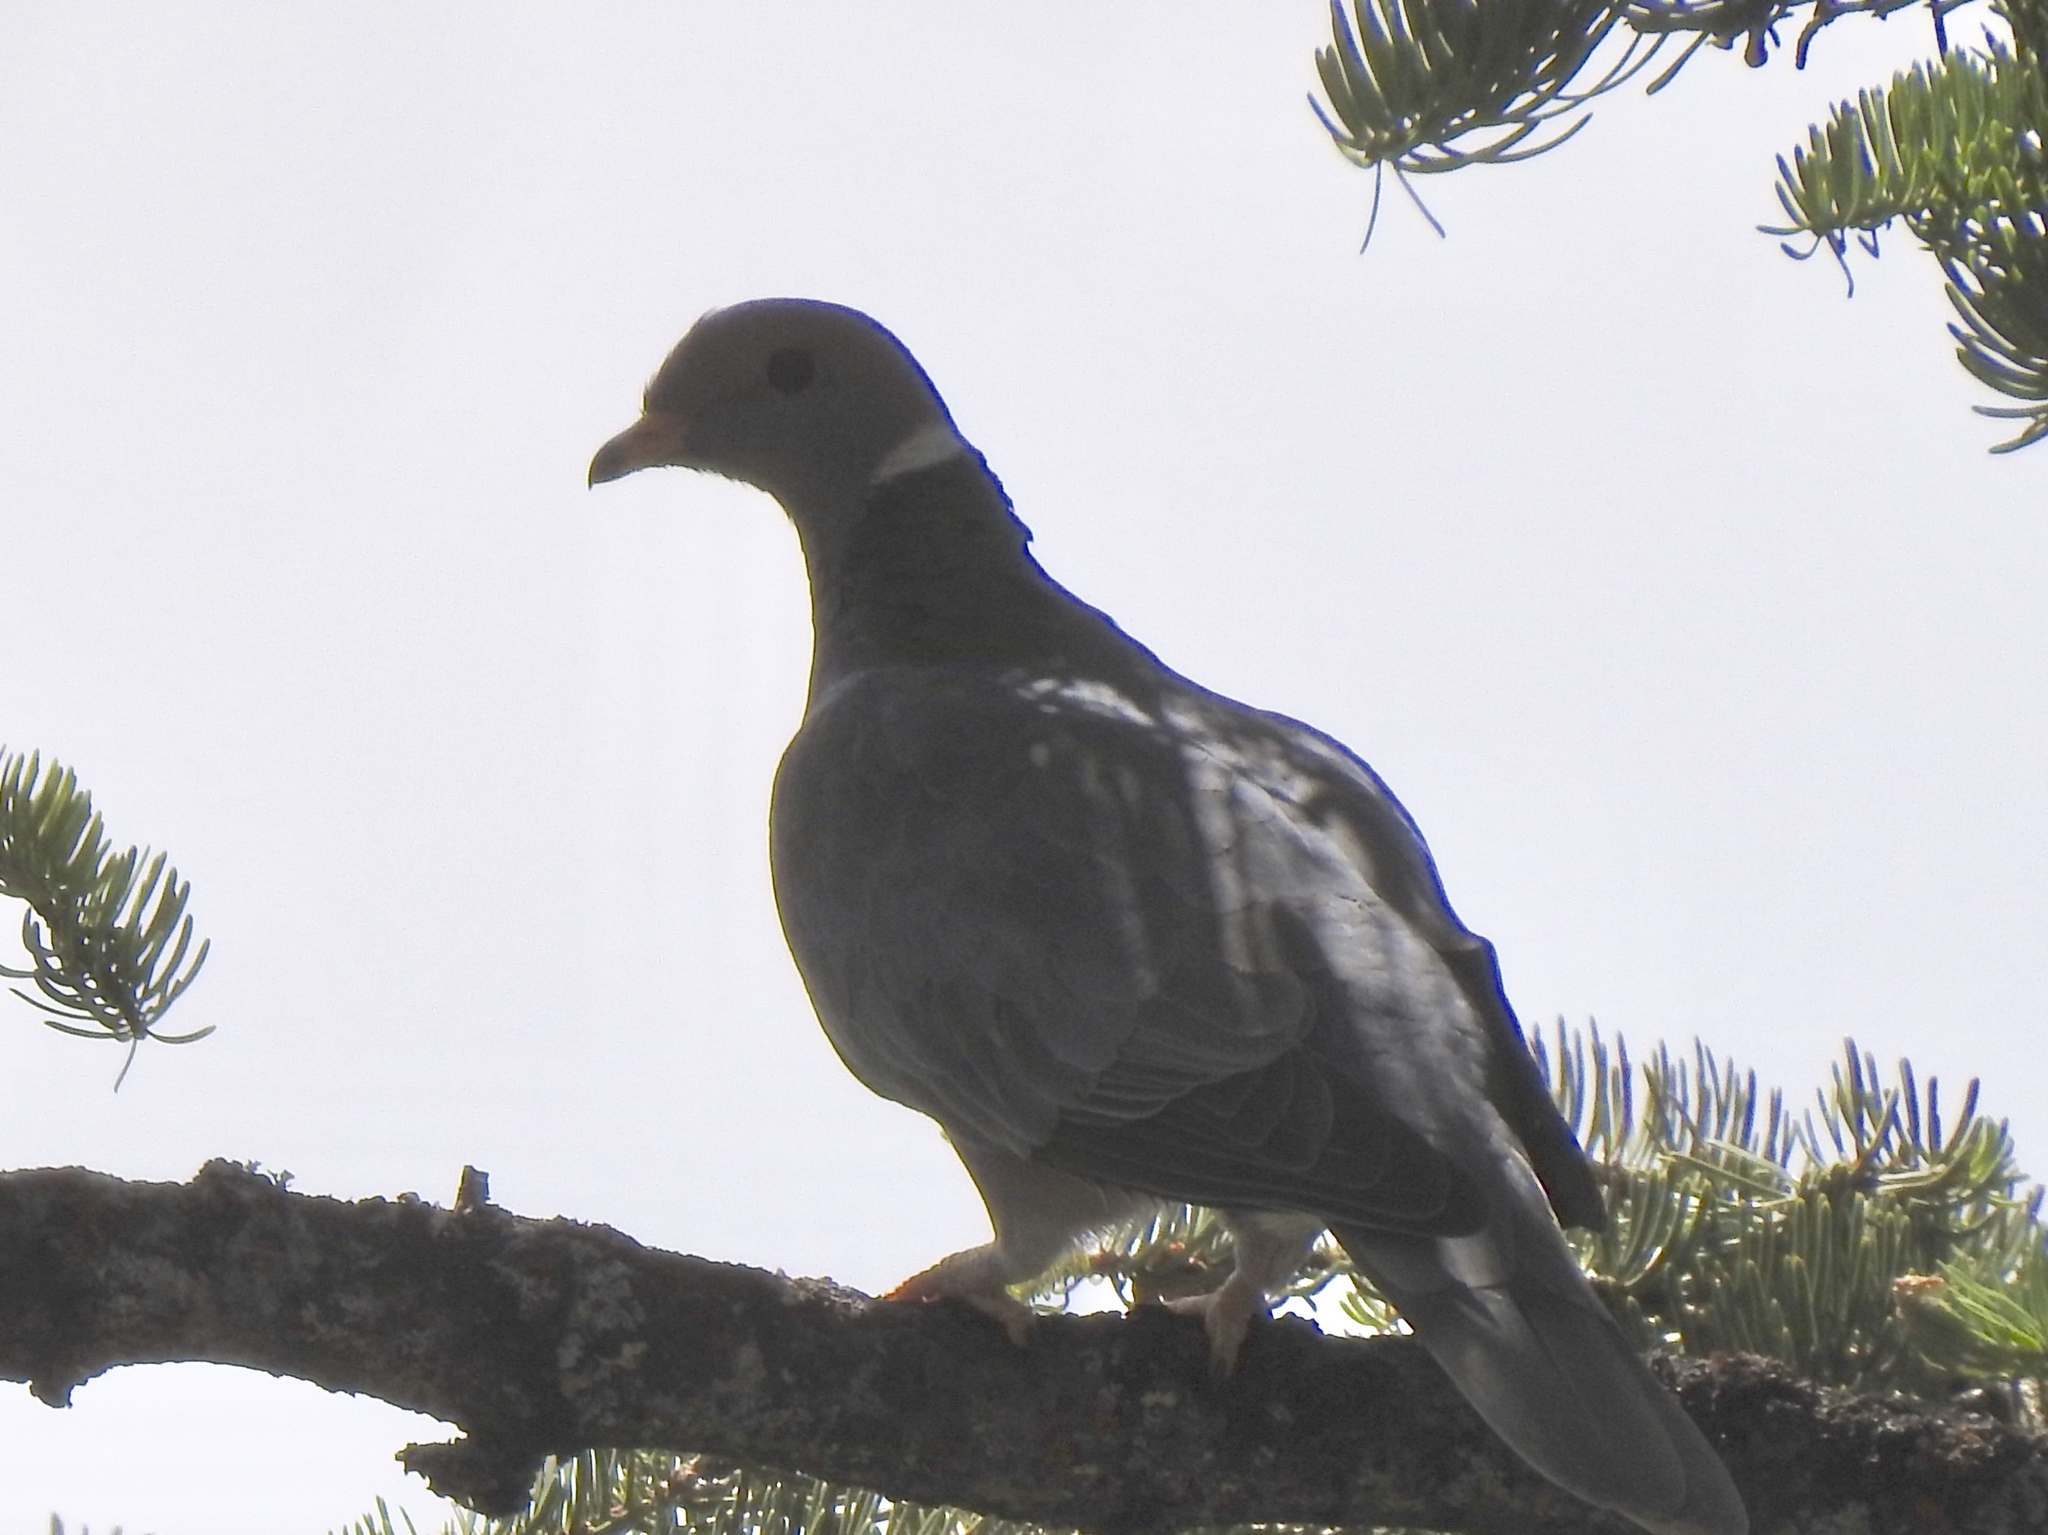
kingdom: Animalia
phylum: Chordata
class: Aves
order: Columbiformes
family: Columbidae
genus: Patagioenas
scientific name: Patagioenas fasciata
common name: Band-tailed pigeon
